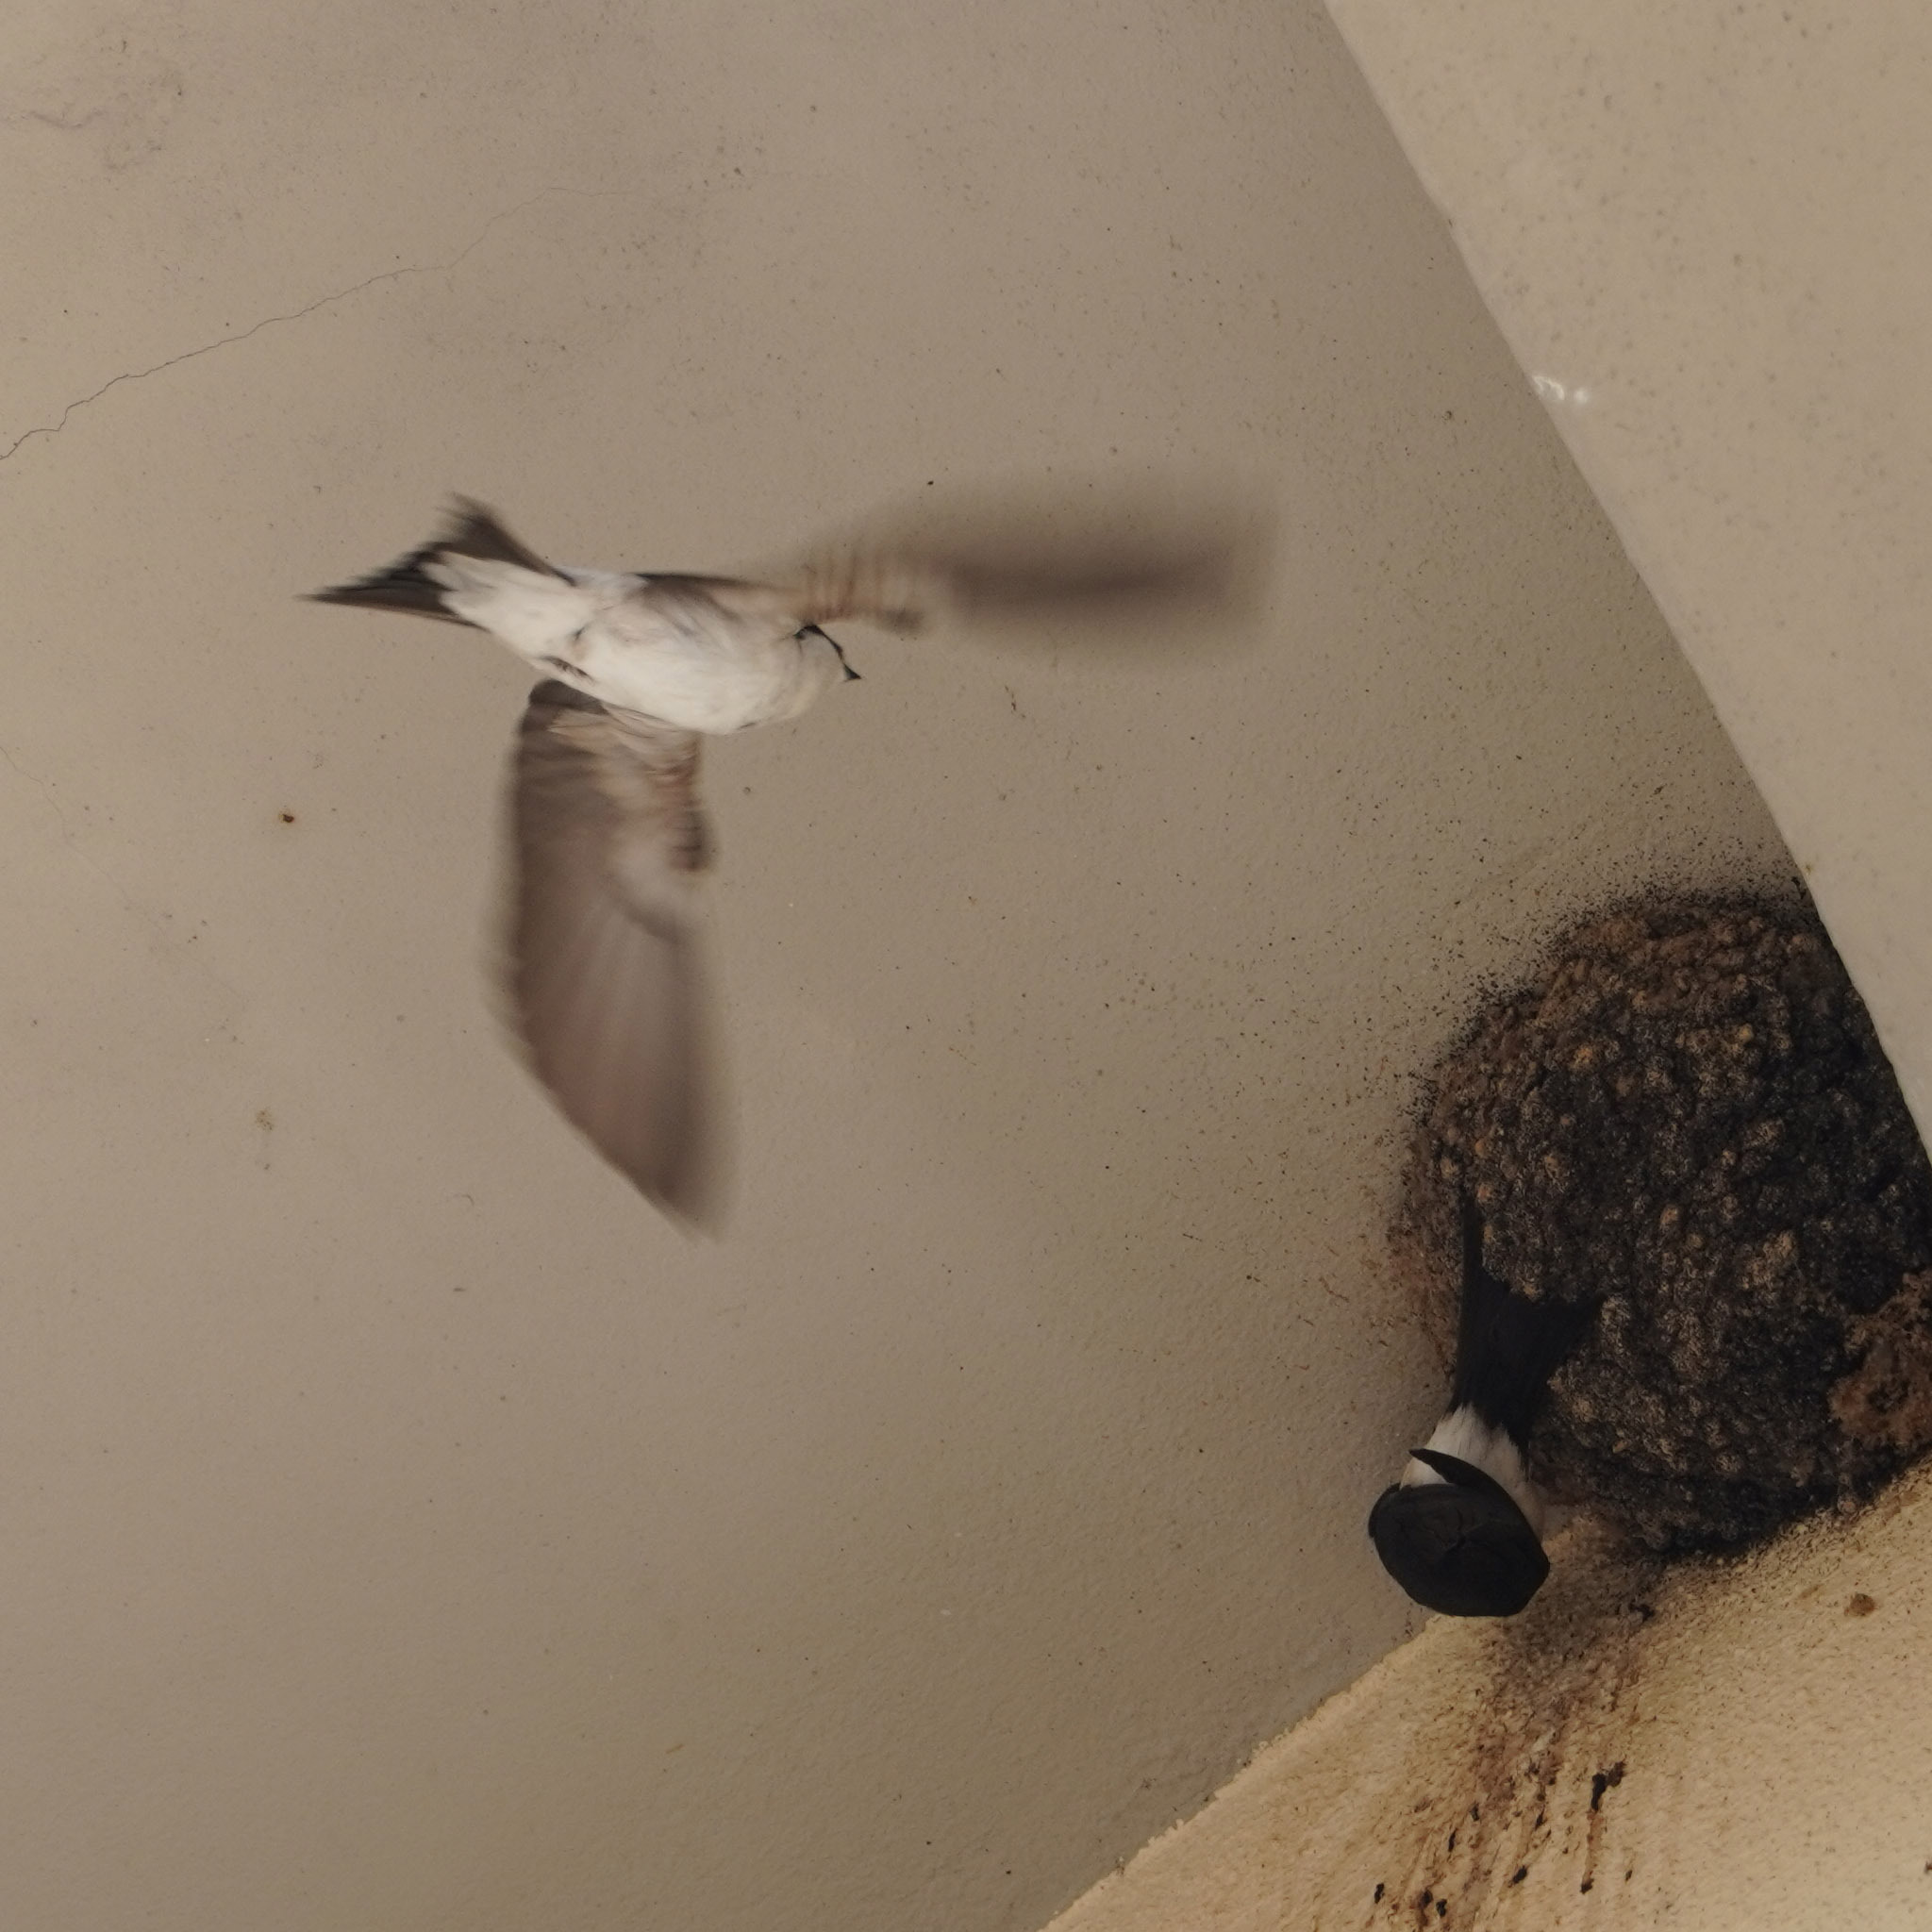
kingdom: Animalia
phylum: Chordata
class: Aves
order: Passeriformes
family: Hirundinidae
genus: Delichon
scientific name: Delichon urbicum
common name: Common house martin
